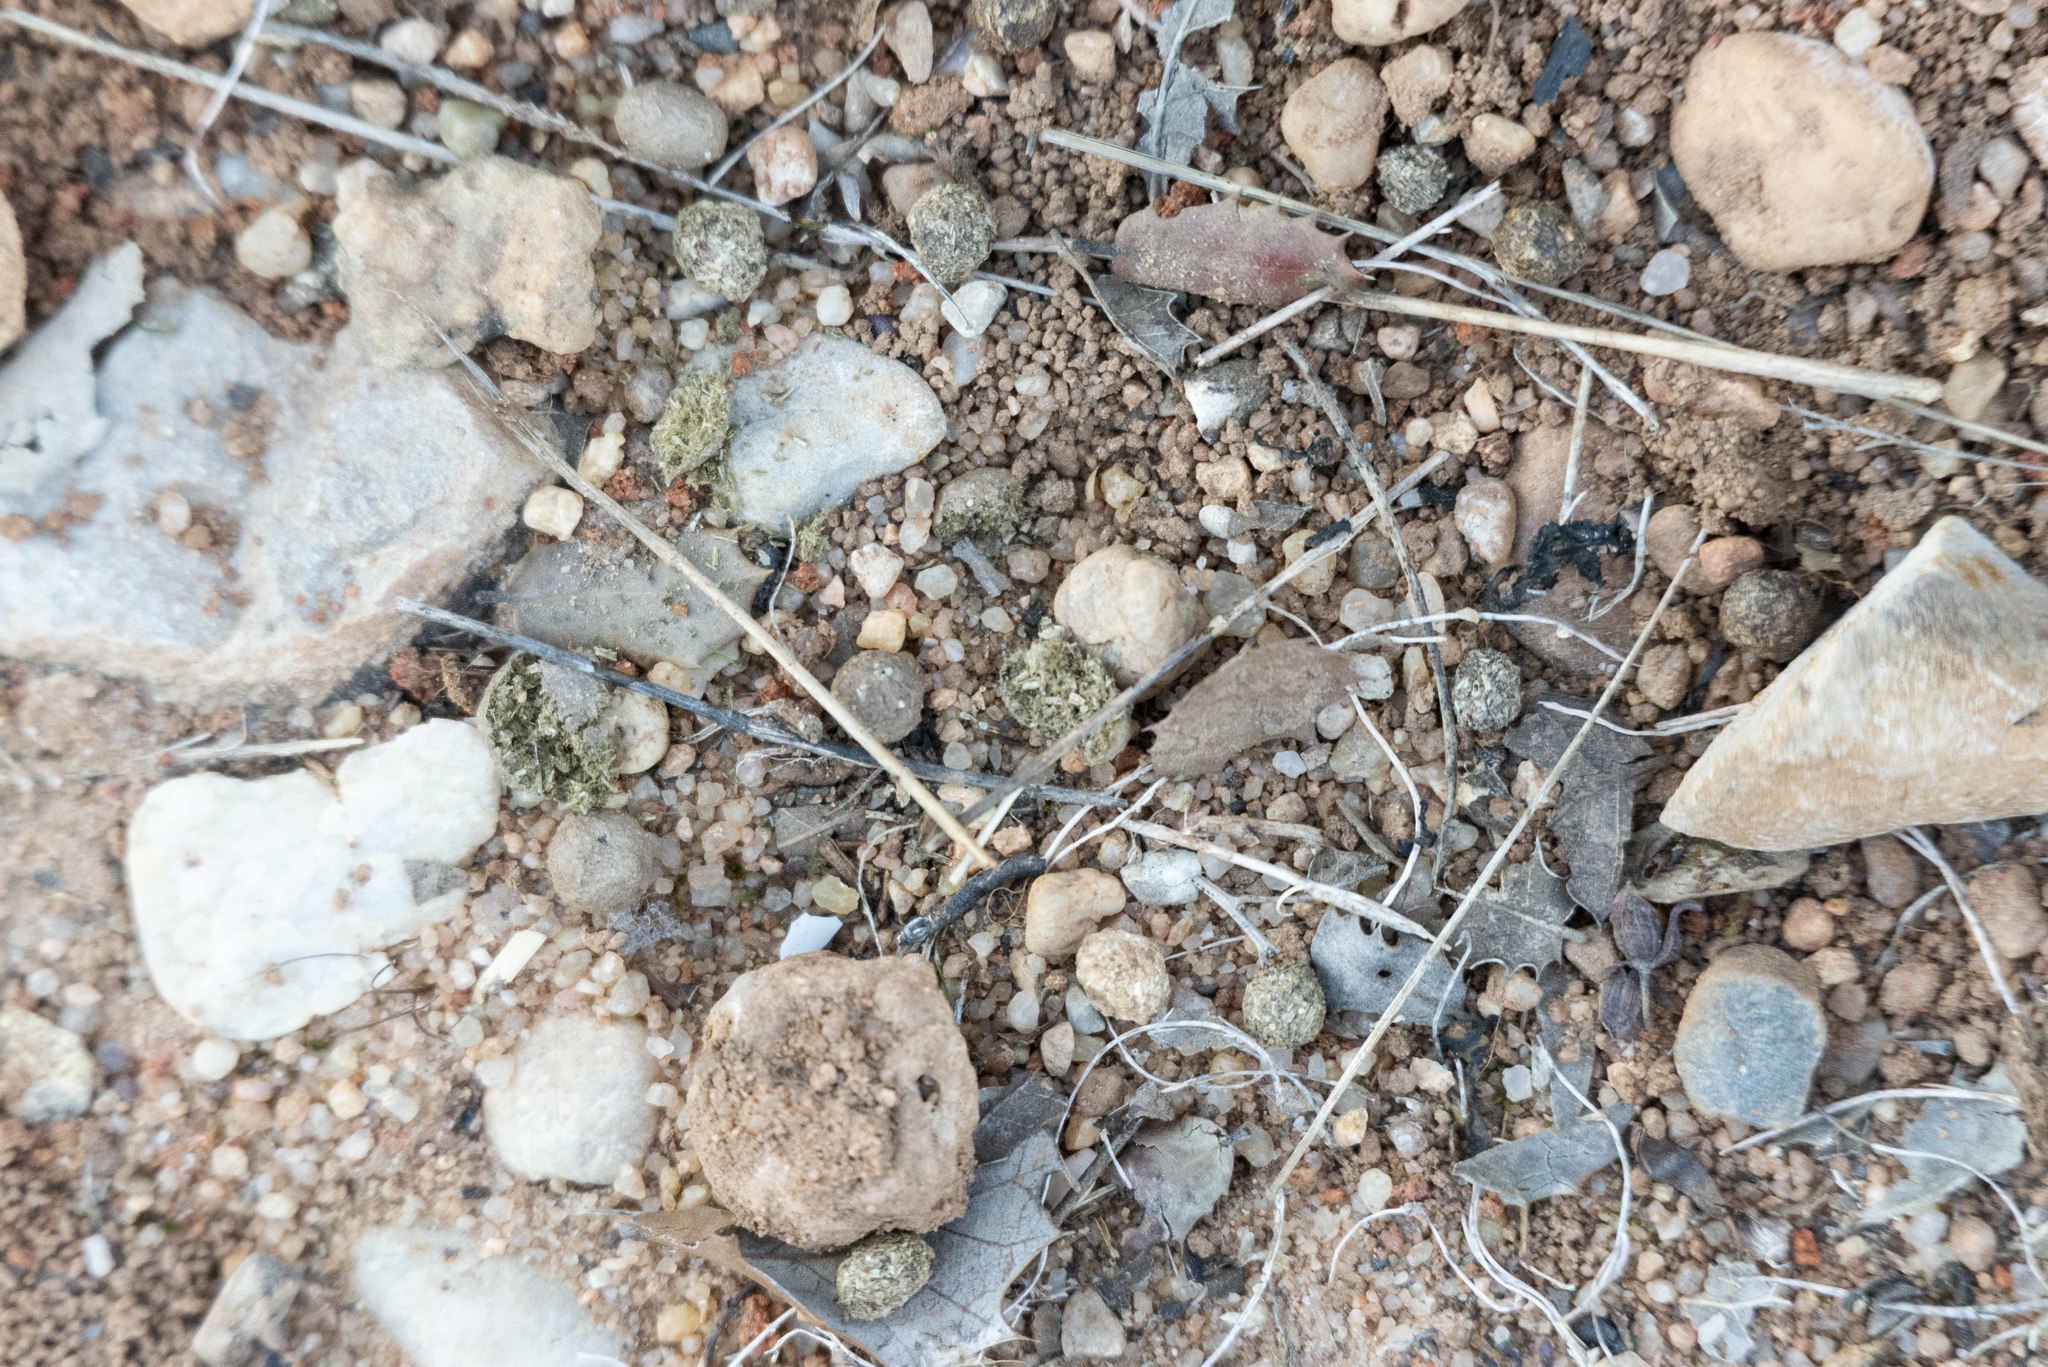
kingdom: Animalia
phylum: Chordata
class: Mammalia
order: Lagomorpha
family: Leporidae
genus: Oryctolagus
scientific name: Oryctolagus cuniculus
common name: European rabbit
